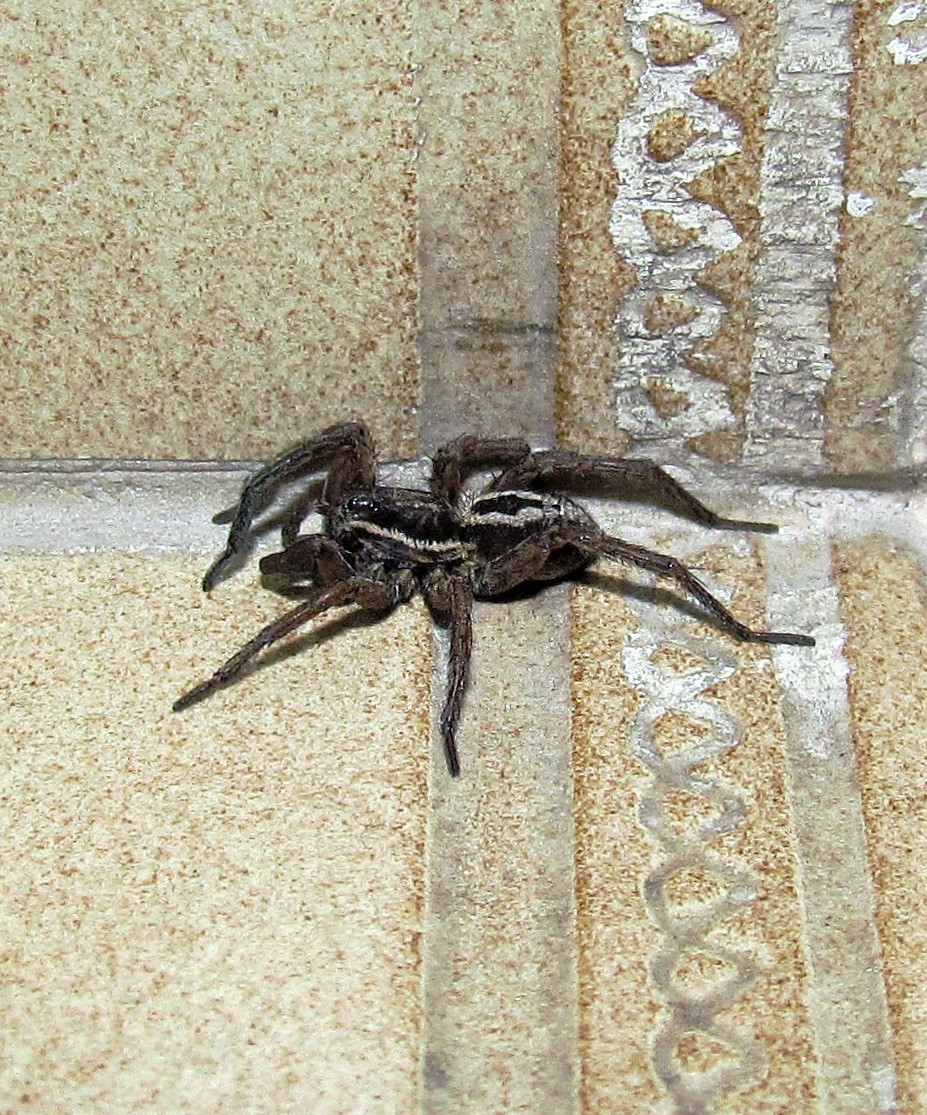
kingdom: Animalia
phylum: Arthropoda
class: Arachnida
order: Araneae
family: Lycosidae
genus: Alopecosa
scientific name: Alopecosa nigricans
